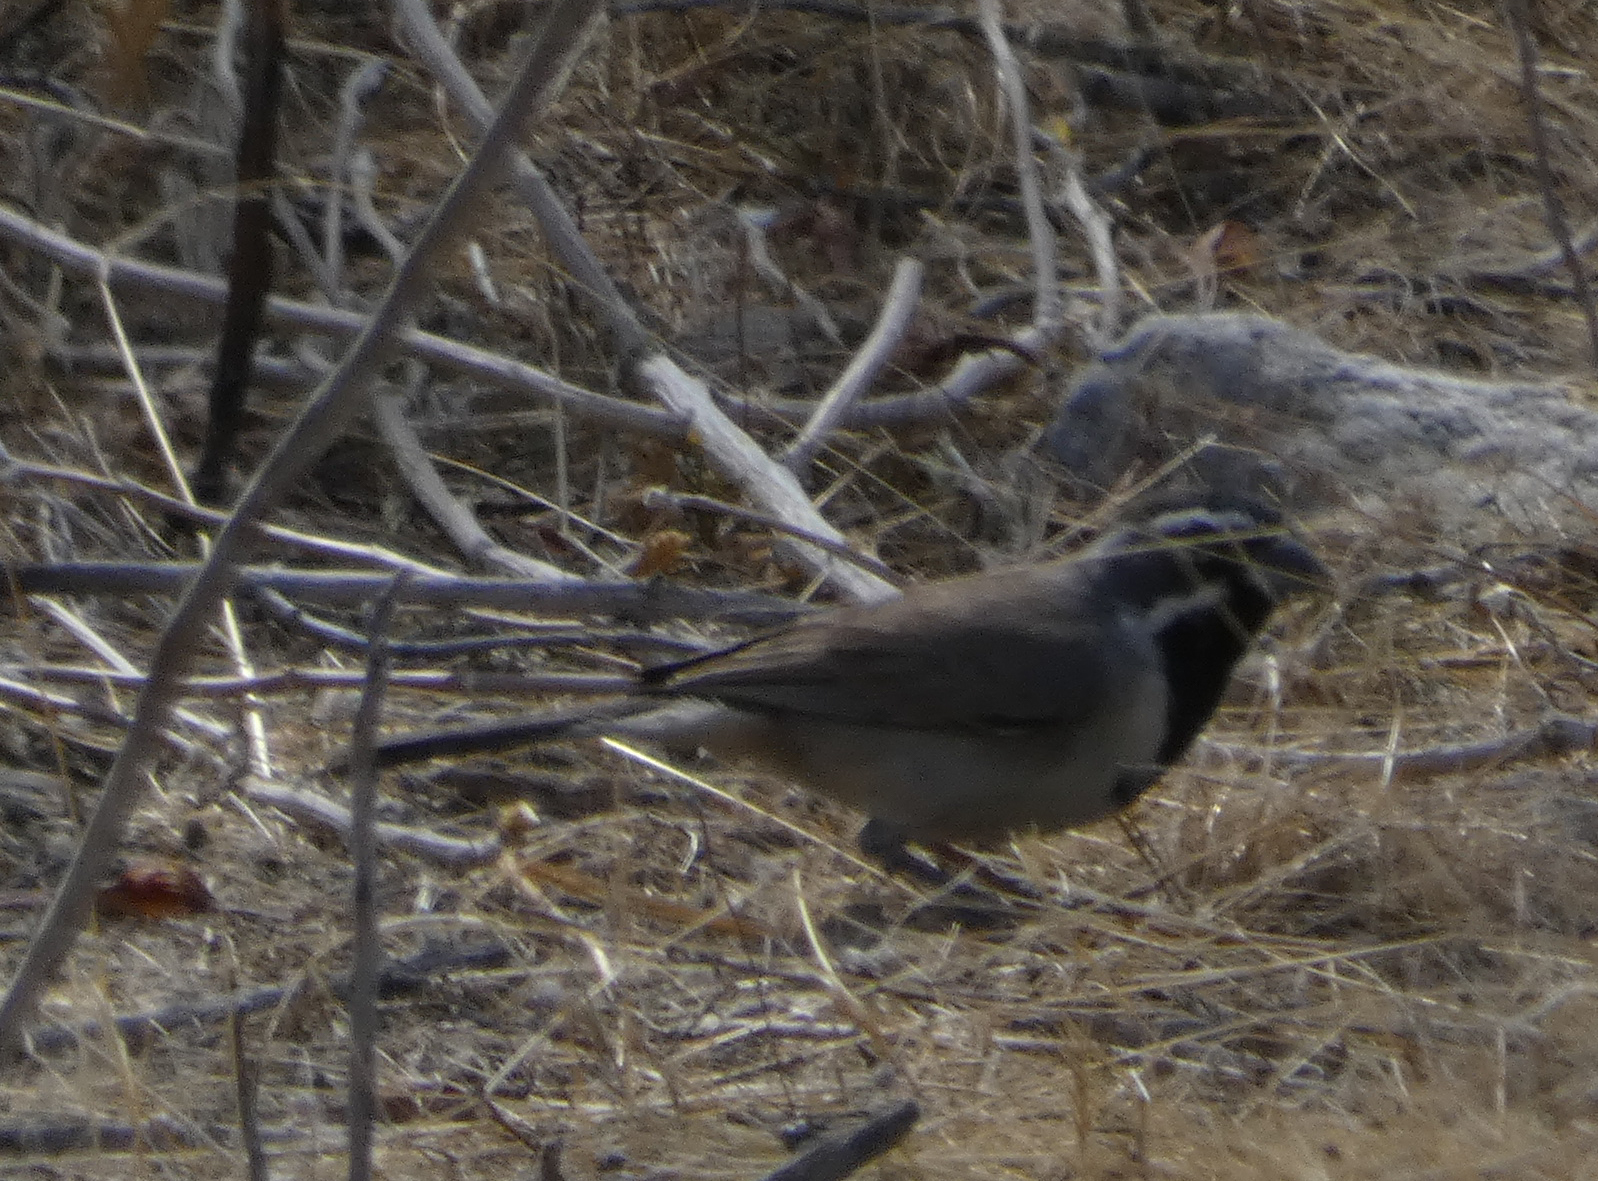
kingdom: Animalia
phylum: Chordata
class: Aves
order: Passeriformes
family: Passerellidae
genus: Amphispiza
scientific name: Amphispiza bilineata
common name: Black-throated sparrow
